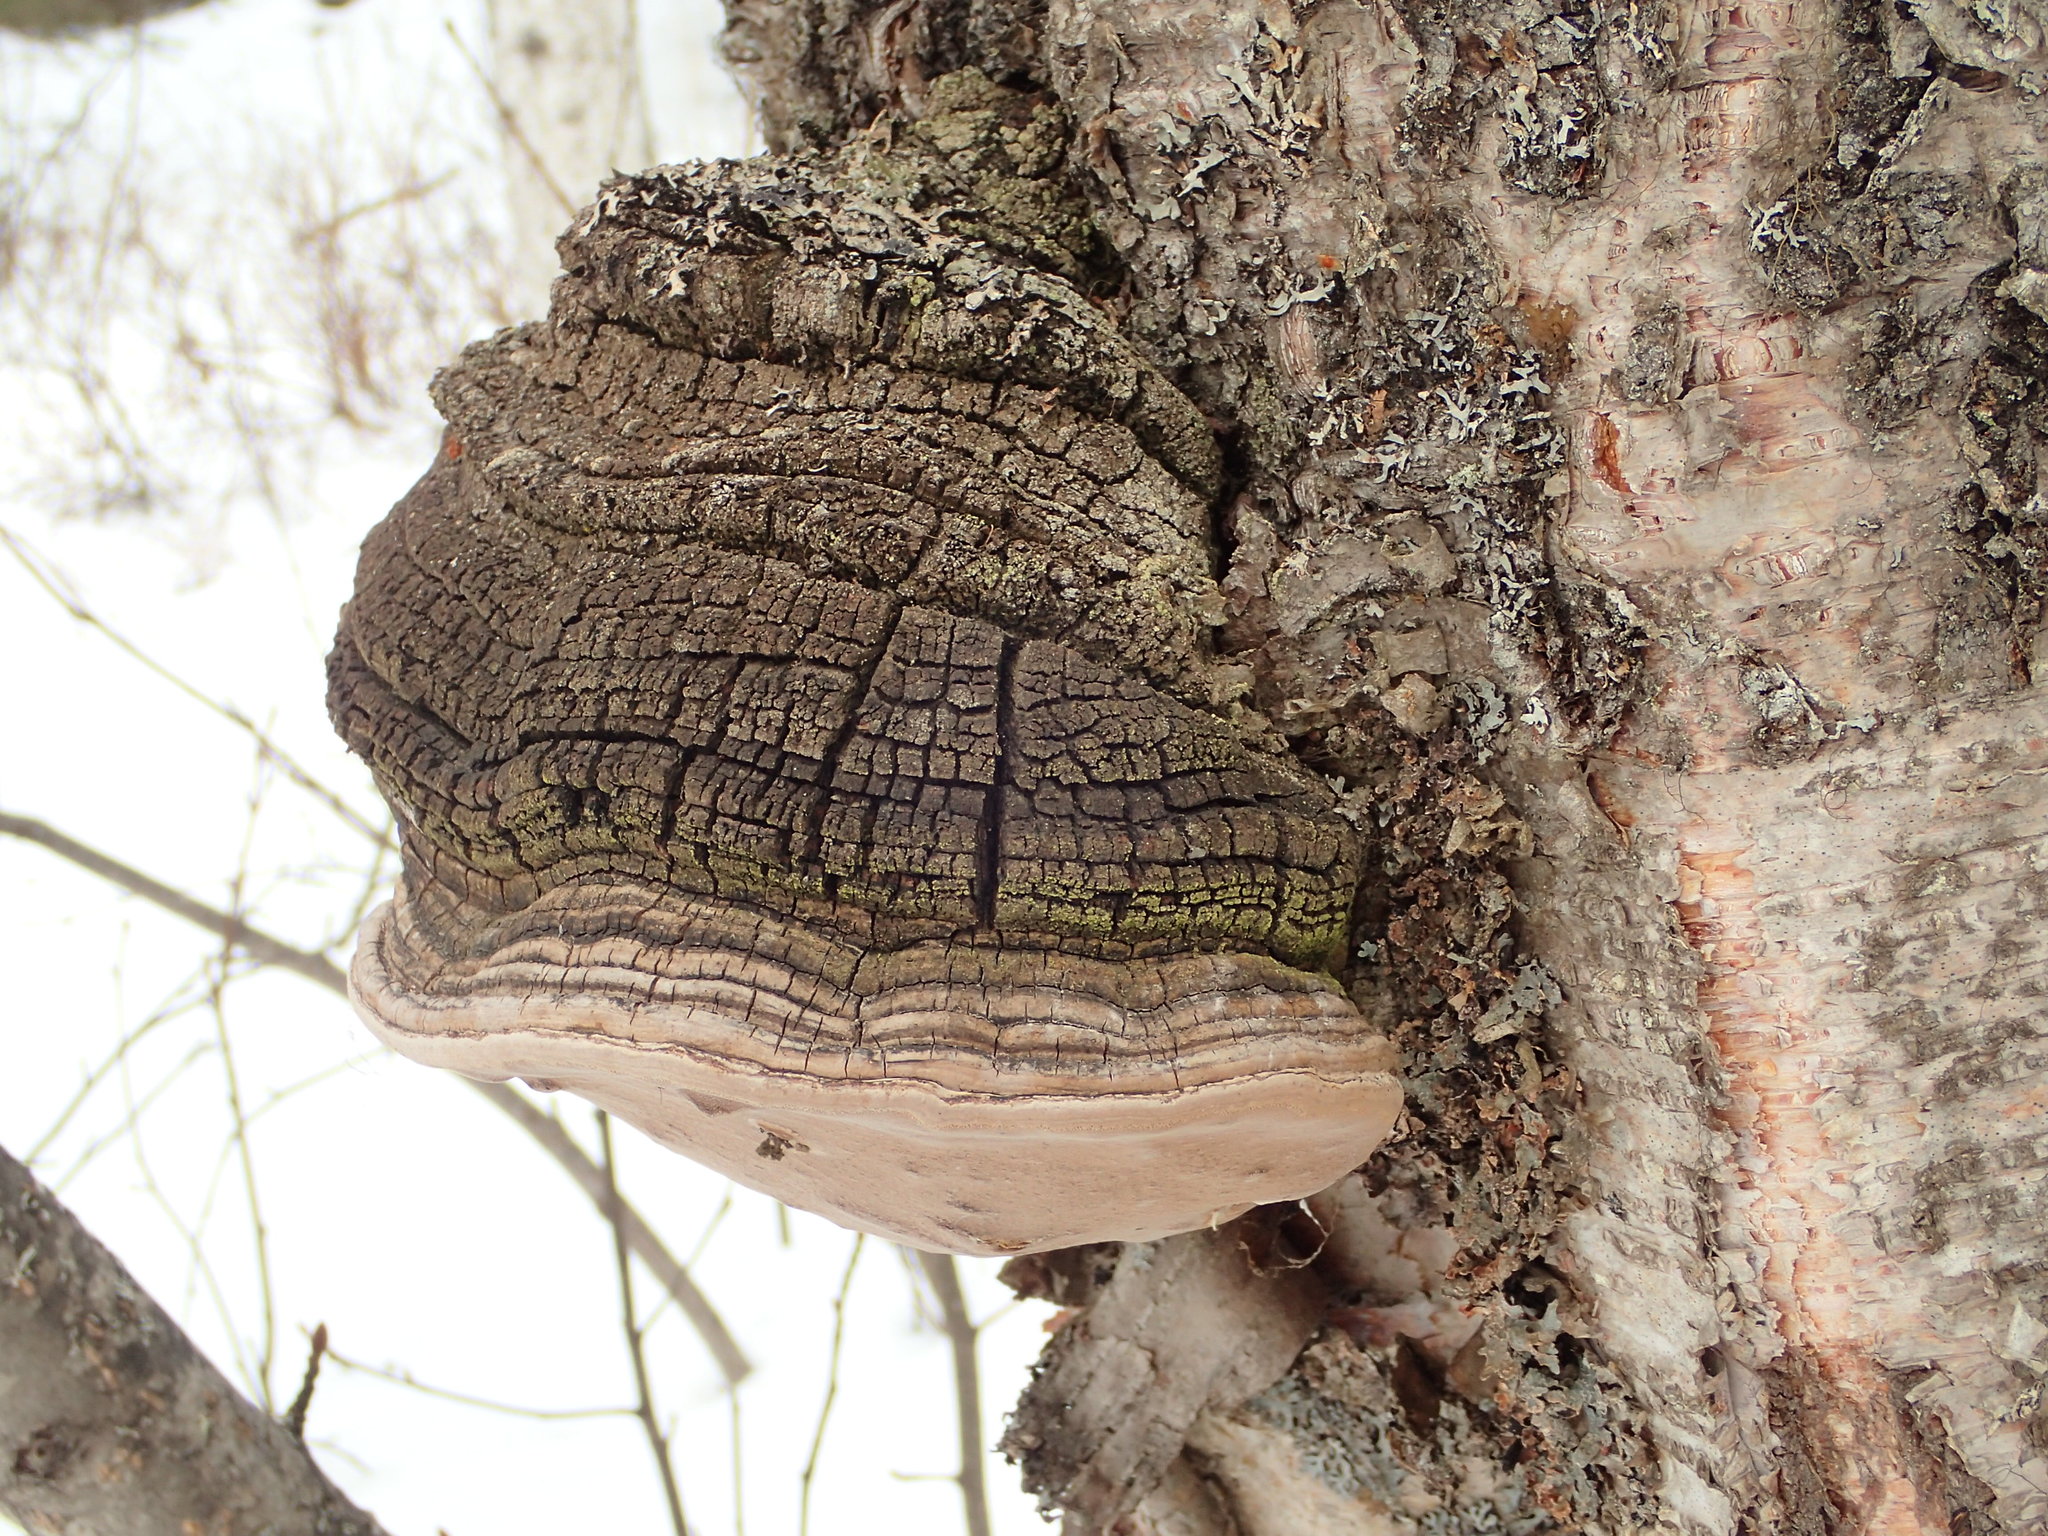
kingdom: Fungi
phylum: Basidiomycota
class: Agaricomycetes
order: Hymenochaetales
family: Hymenochaetaceae
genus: Phellinus
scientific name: Phellinus igniarius
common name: Willow bracket
